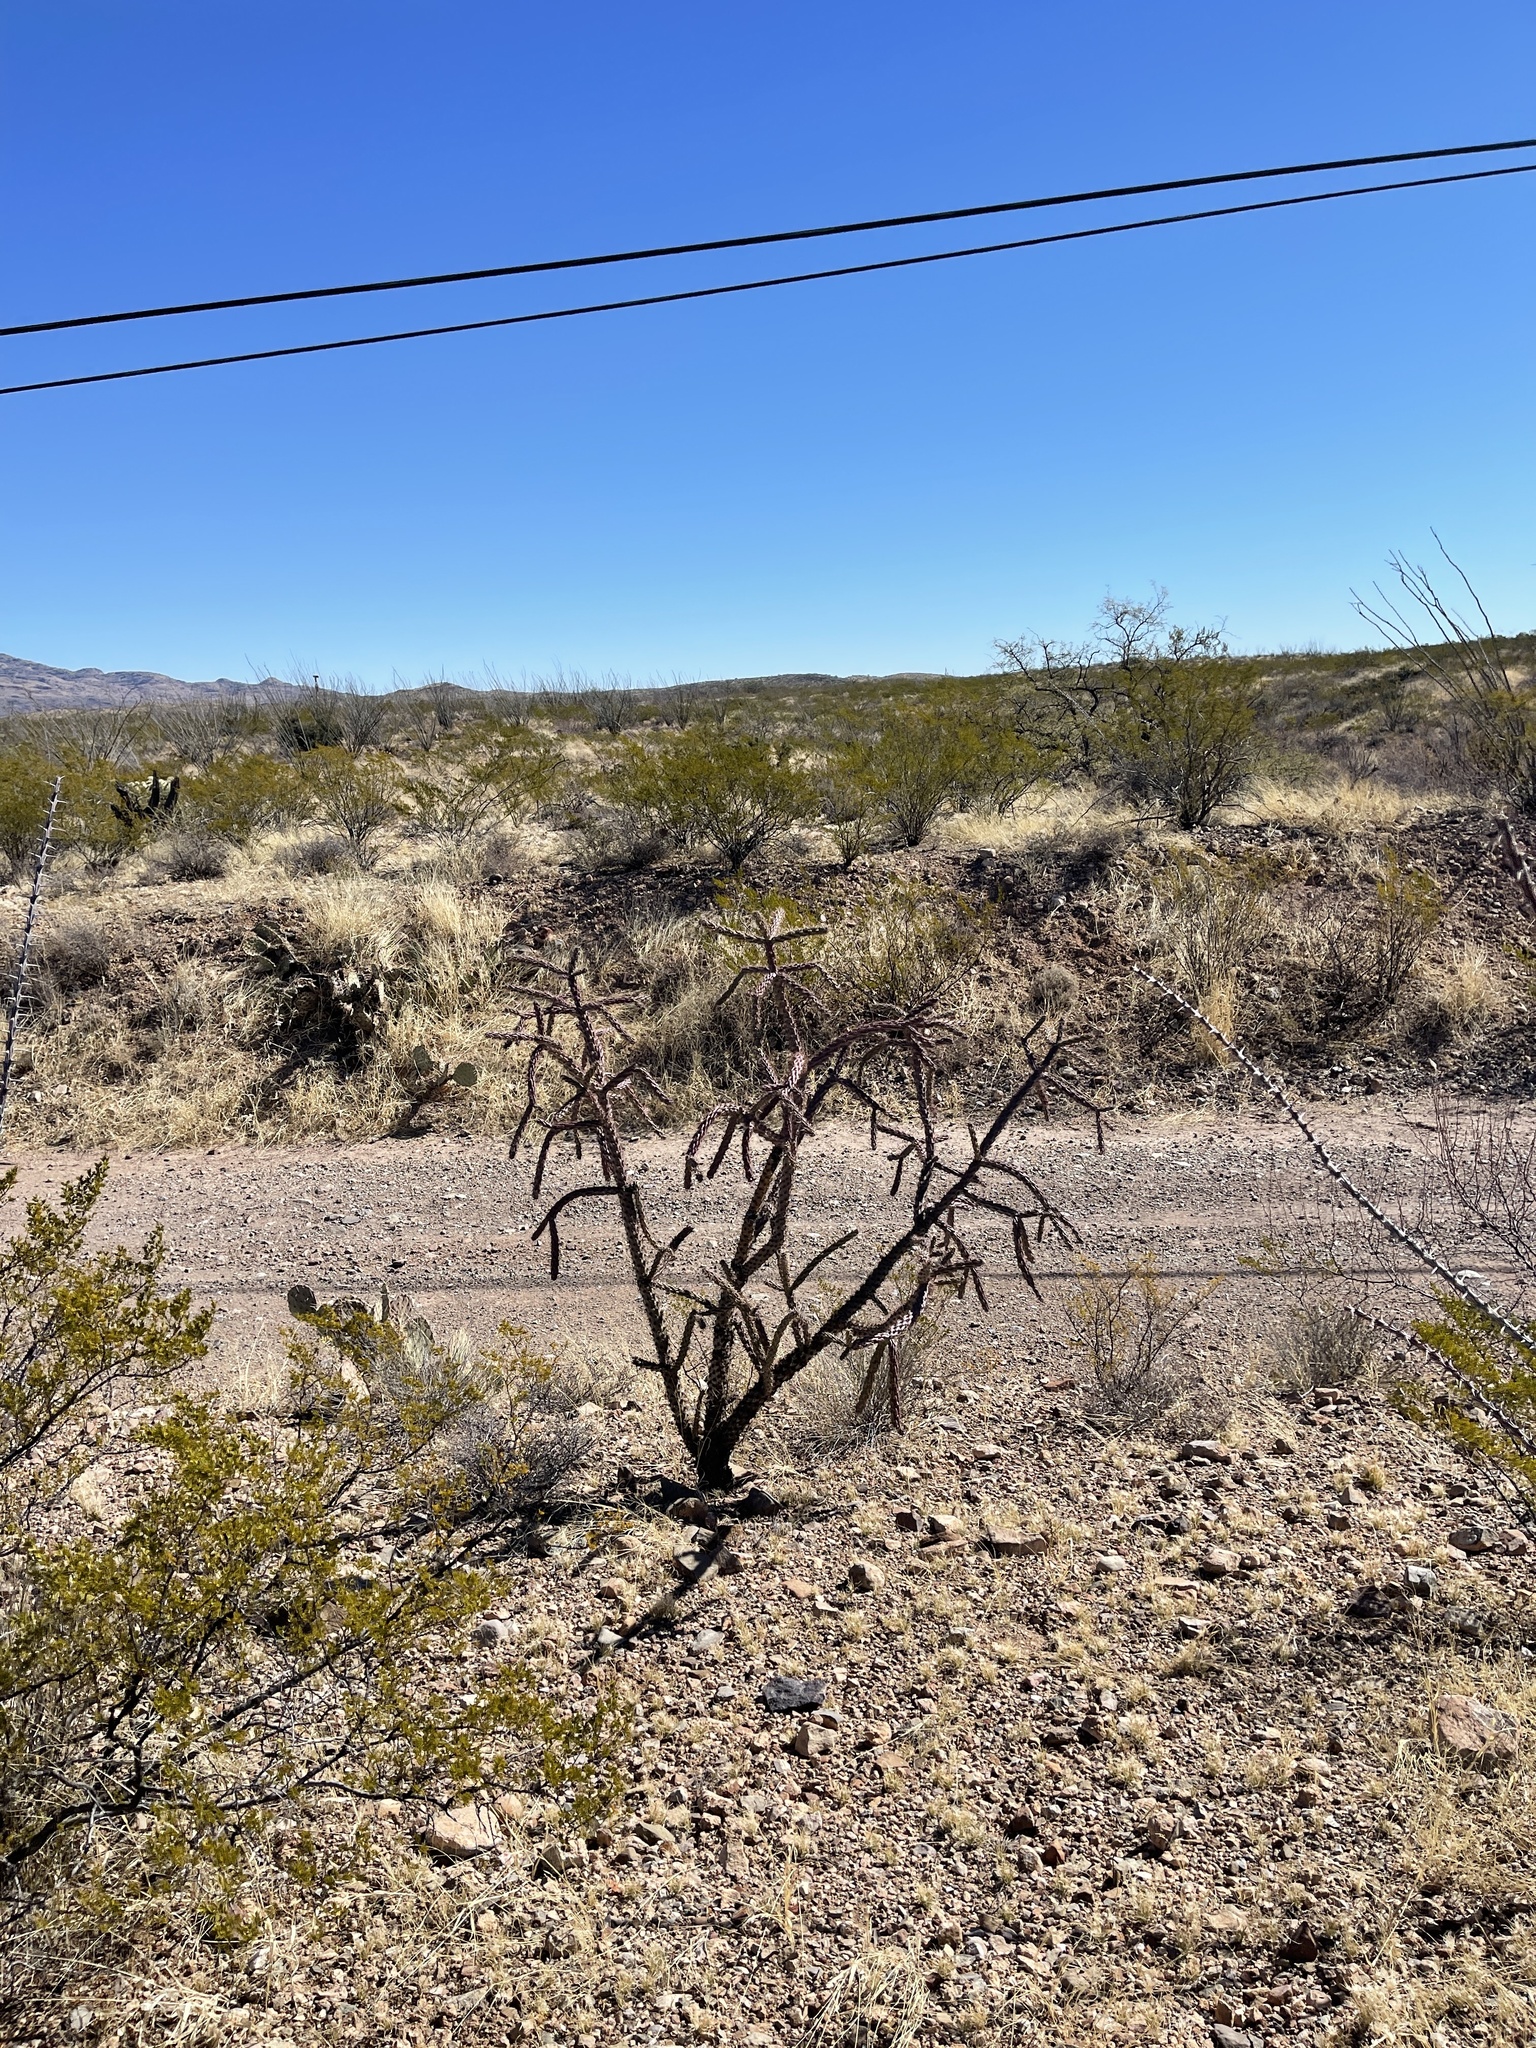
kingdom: Plantae
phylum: Tracheophyta
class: Magnoliopsida
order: Caryophyllales
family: Cactaceae
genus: Cylindropuntia
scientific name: Cylindropuntia thurberi
